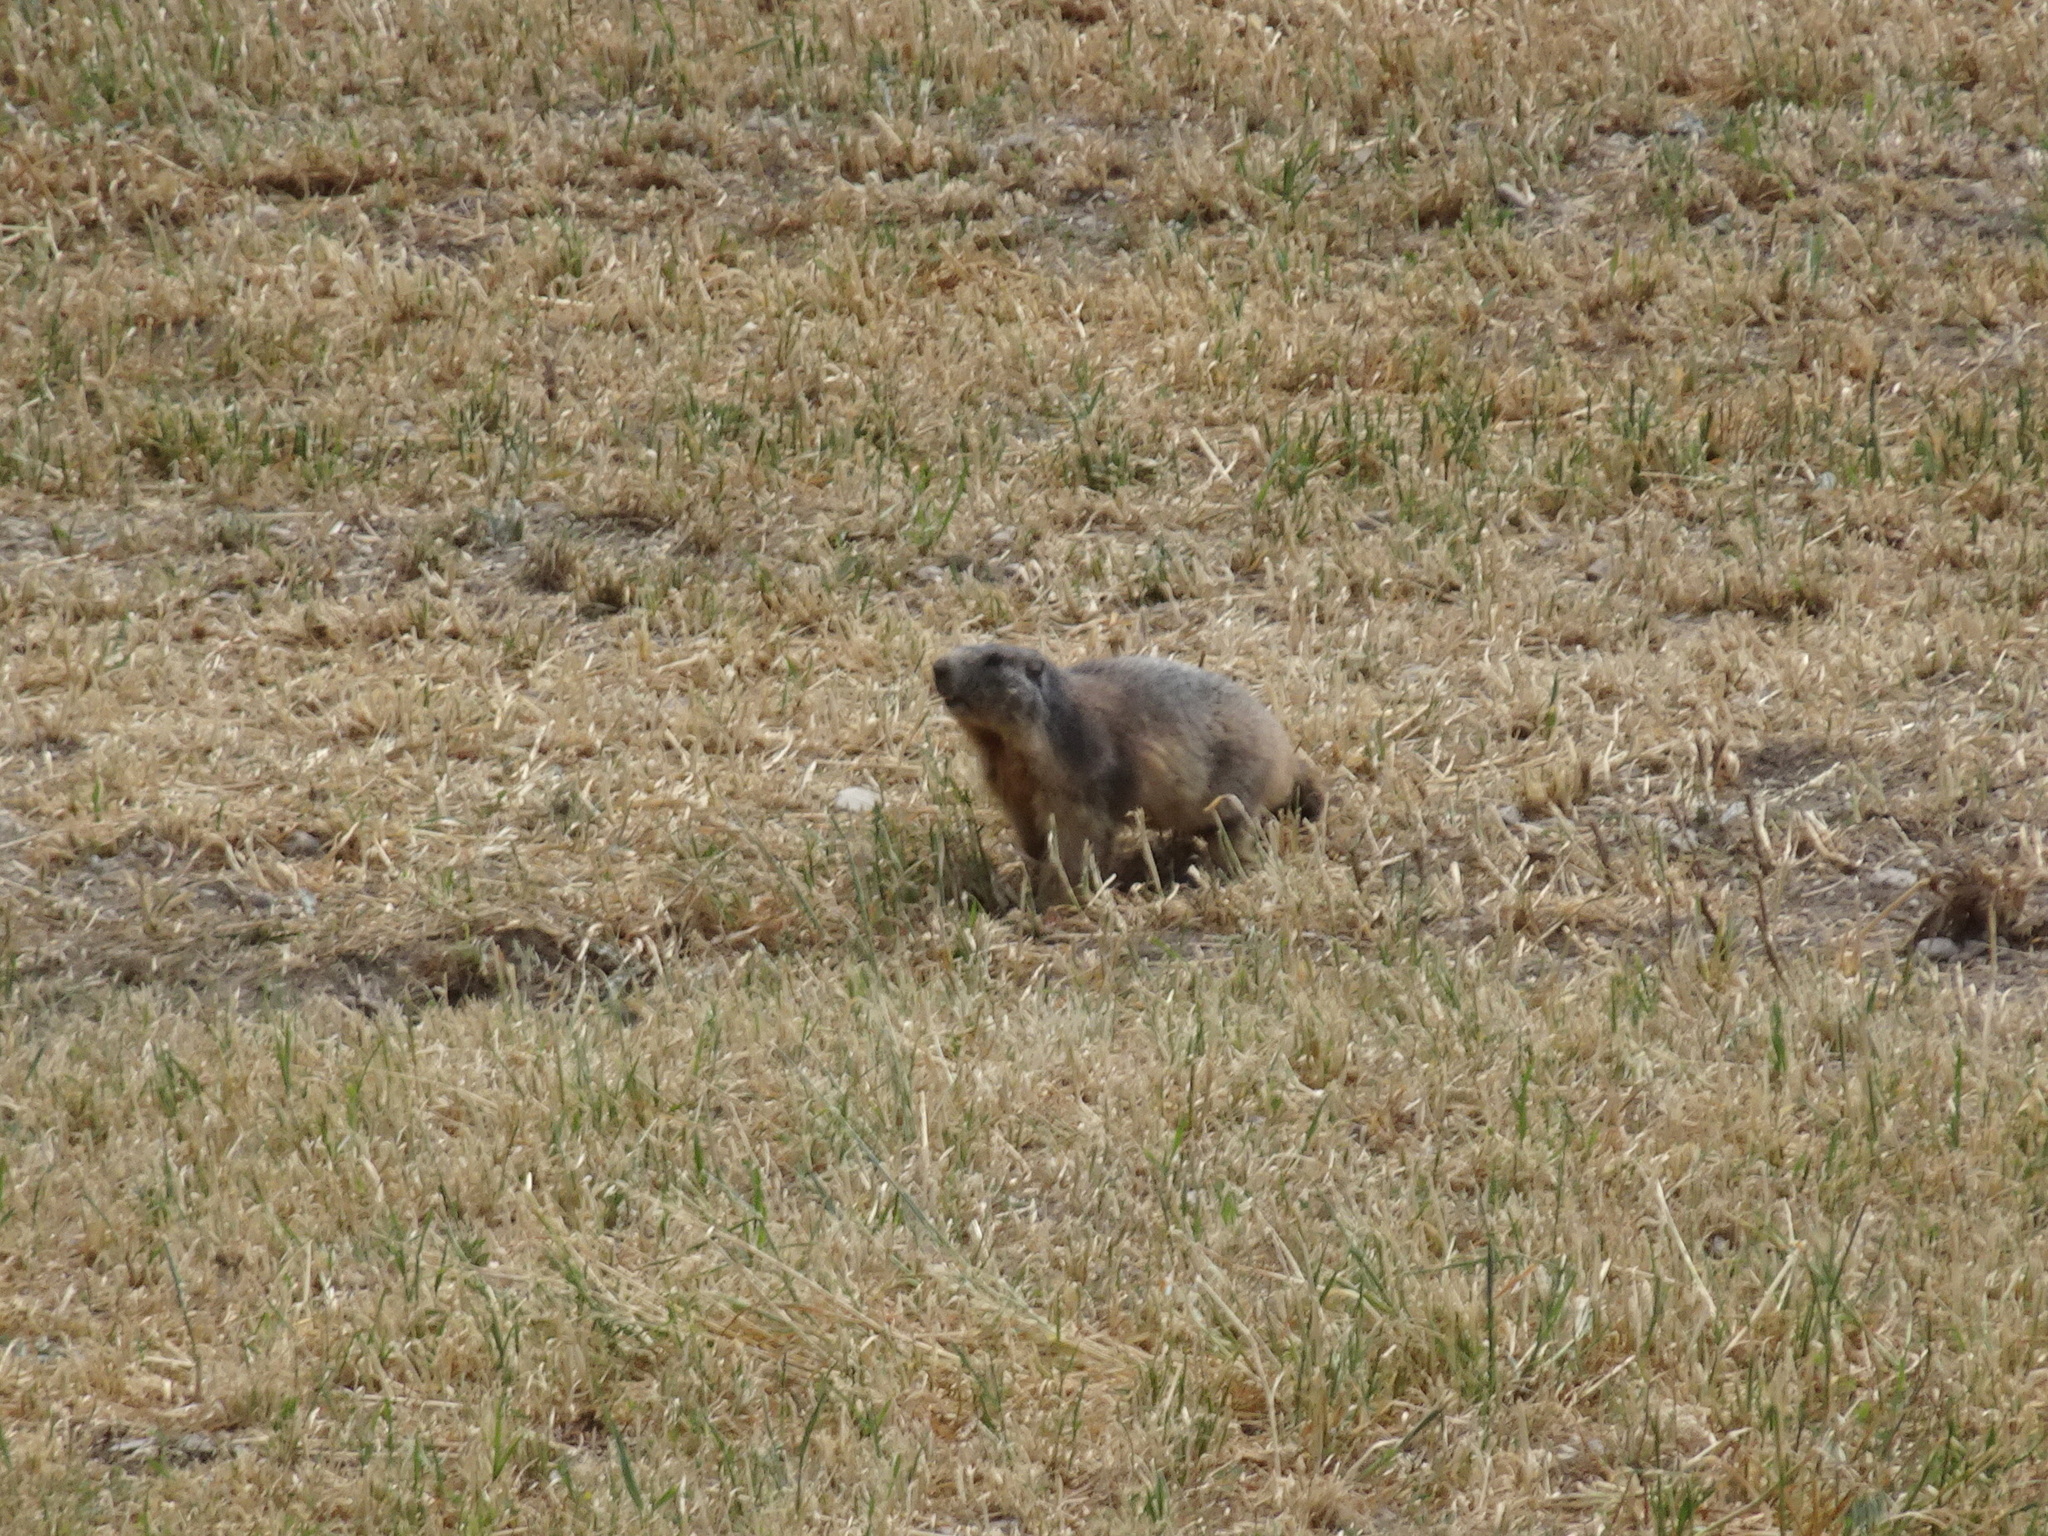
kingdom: Animalia
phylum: Chordata
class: Mammalia
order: Rodentia
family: Sciuridae
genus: Marmota
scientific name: Marmota marmota
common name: Alpine marmot
